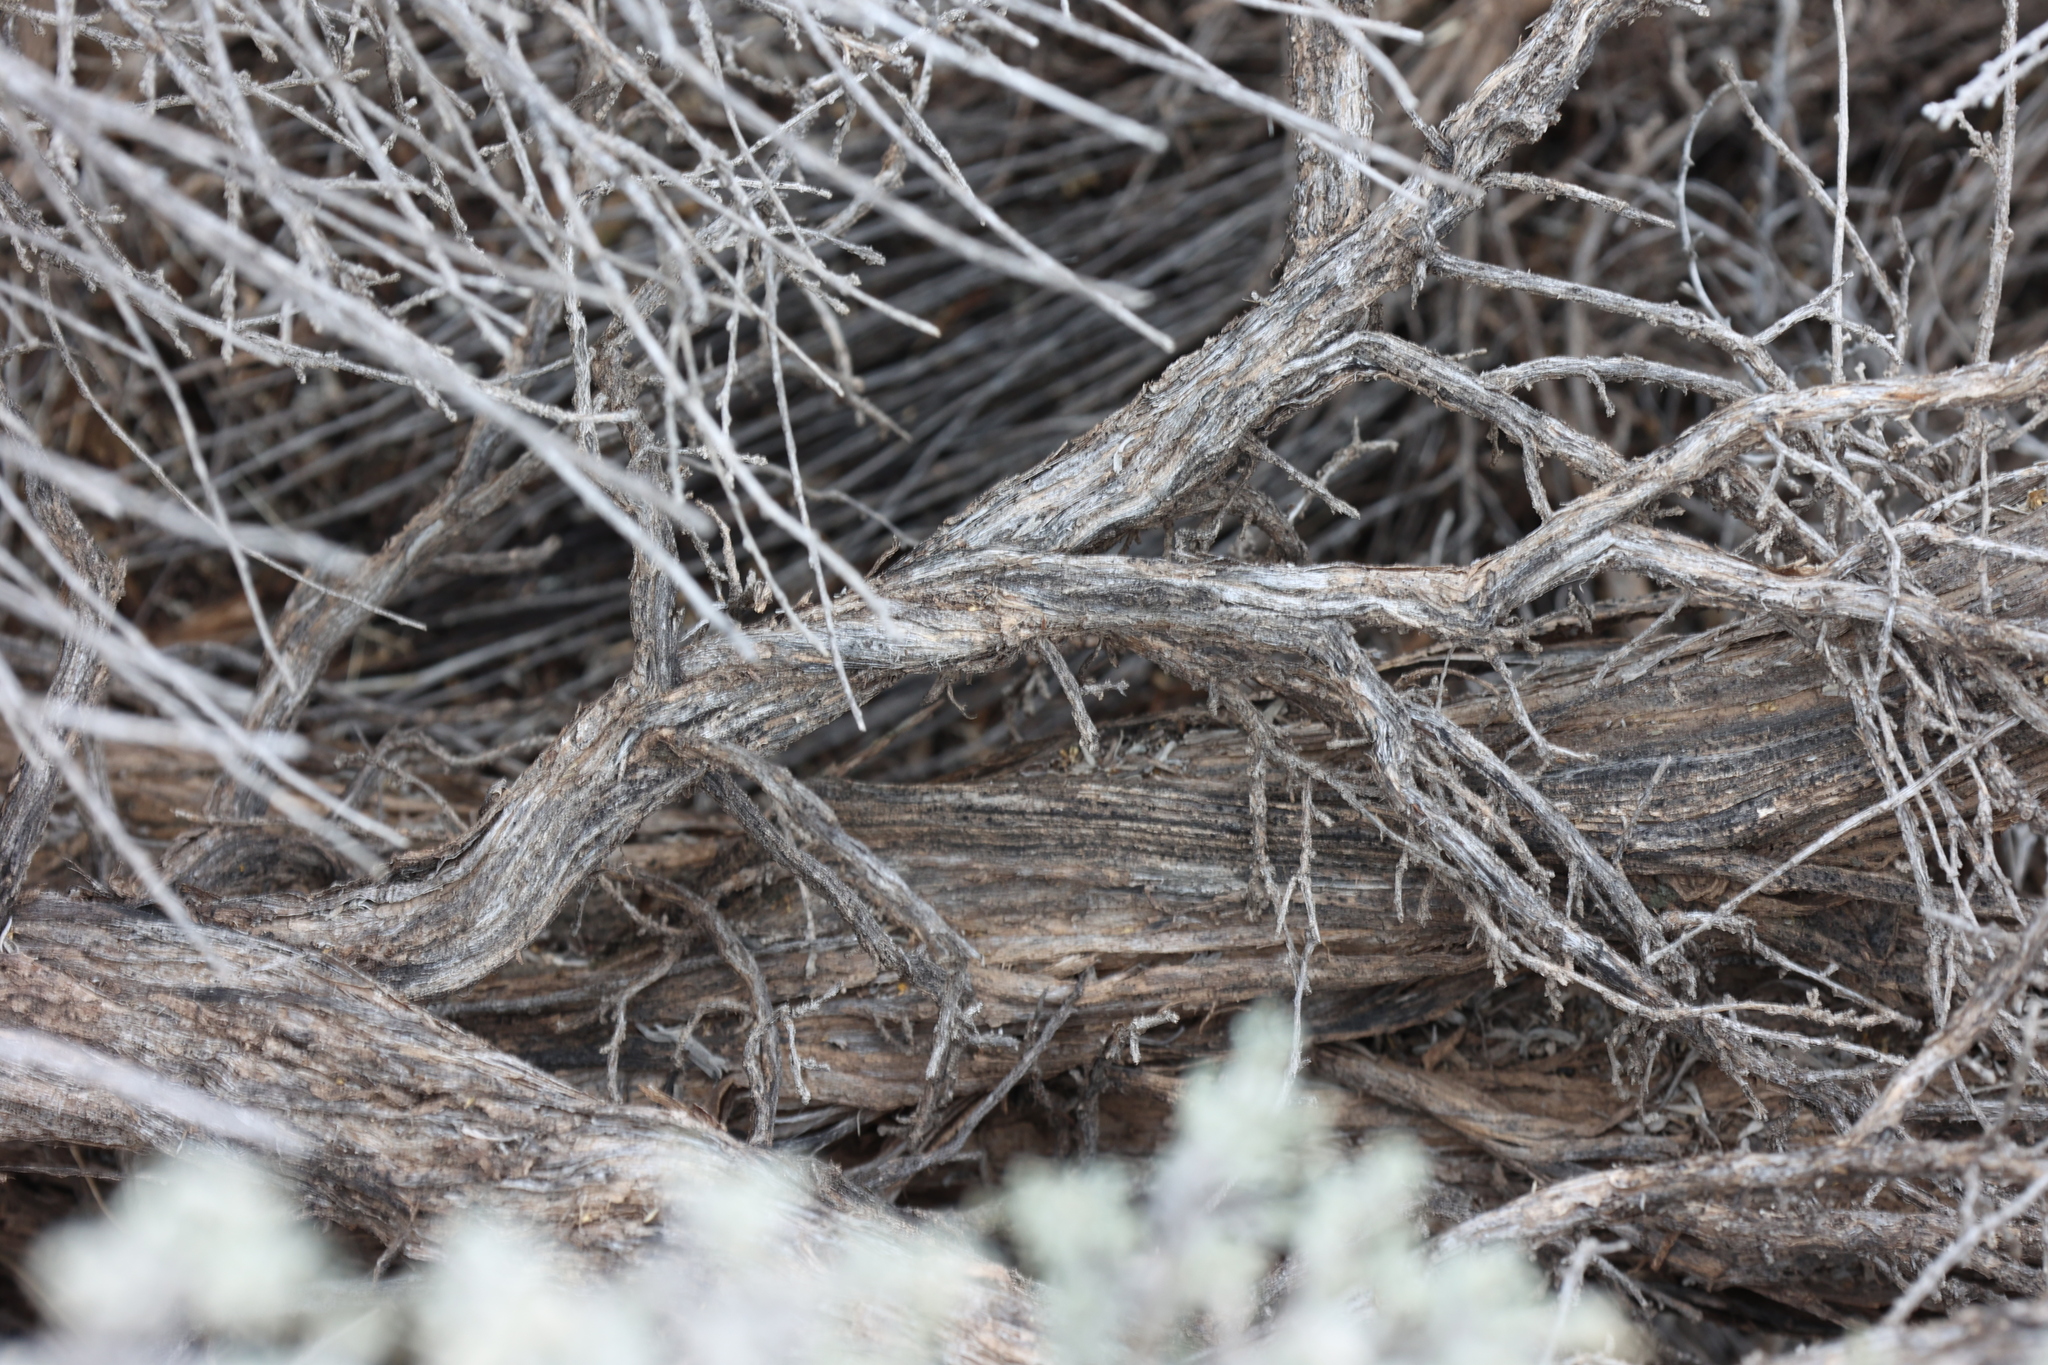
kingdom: Plantae
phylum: Tracheophyta
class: Magnoliopsida
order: Asterales
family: Asteraceae
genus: Artemisia
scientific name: Artemisia tridentata
